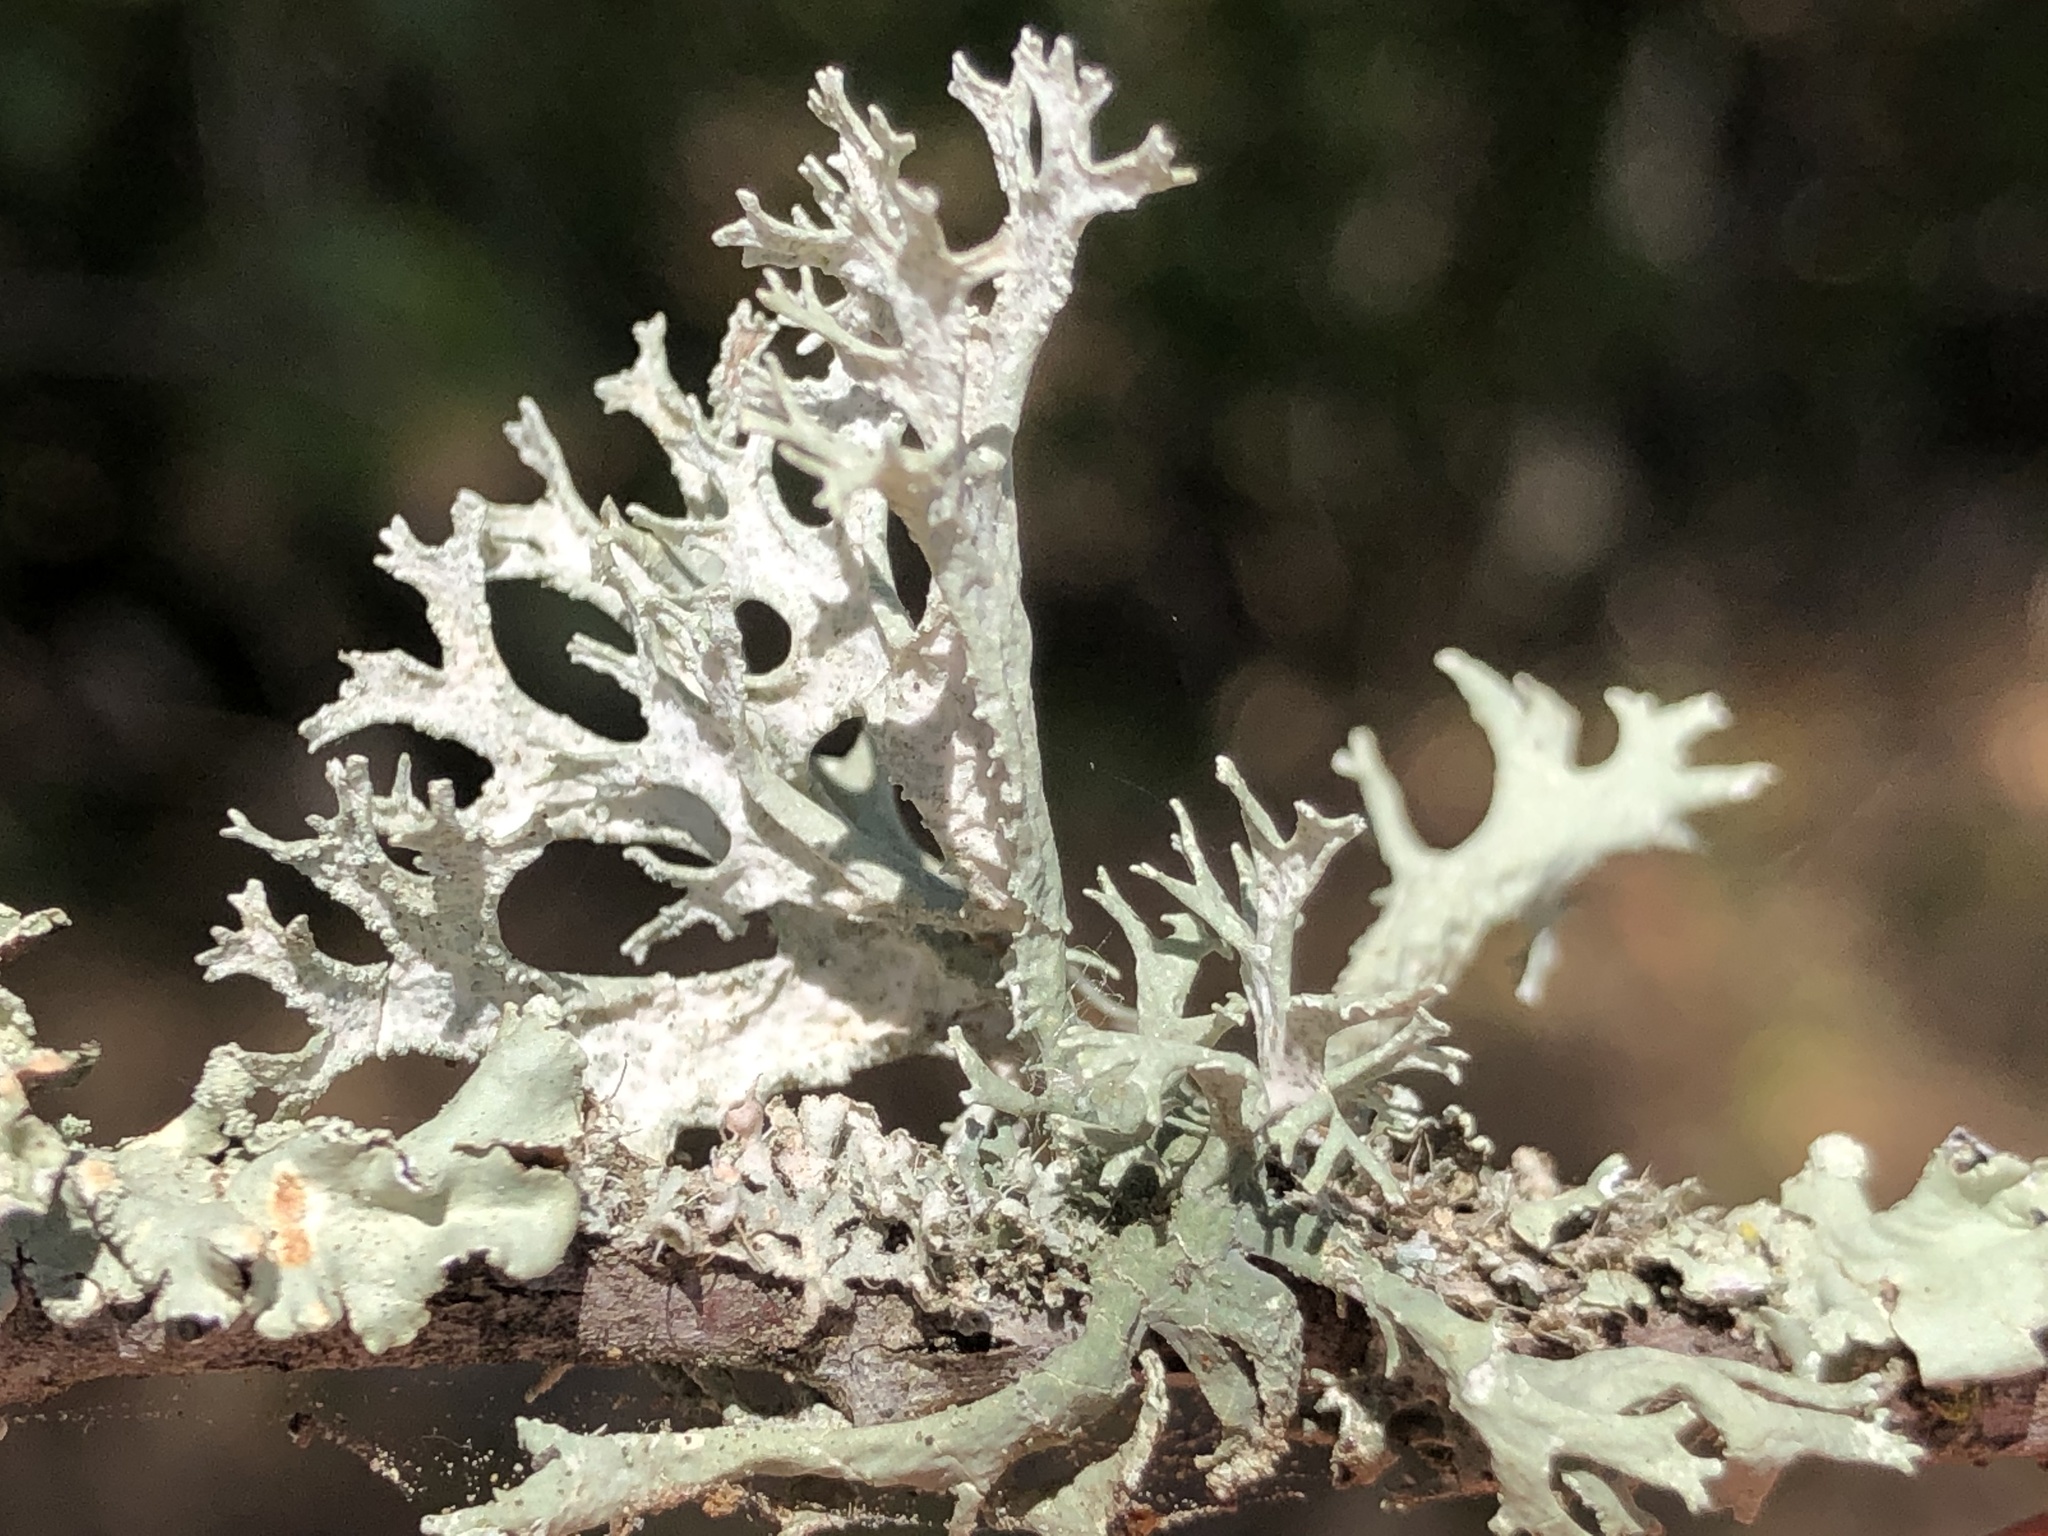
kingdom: Fungi
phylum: Ascomycota
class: Lecanoromycetes
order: Lecanorales
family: Parmeliaceae
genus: Evernia
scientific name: Evernia prunastri
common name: Oak moss
